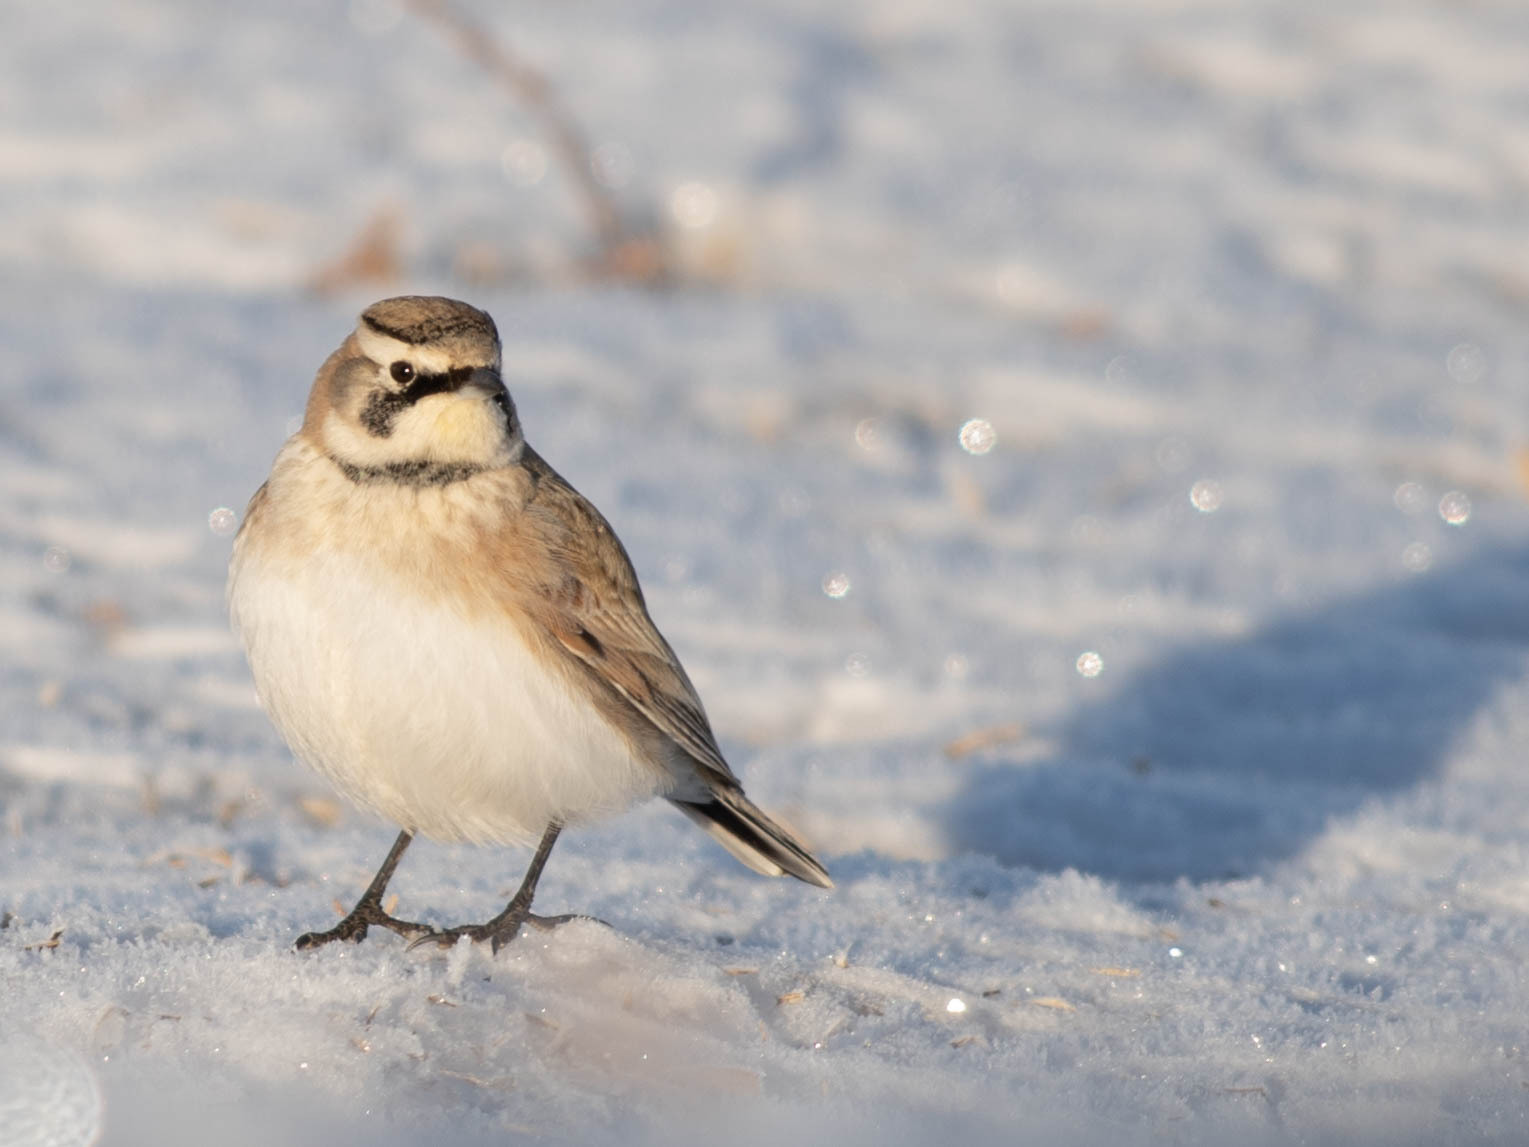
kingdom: Animalia
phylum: Chordata
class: Aves
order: Passeriformes
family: Alaudidae
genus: Eremophila
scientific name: Eremophila alpestris
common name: Horned lark
